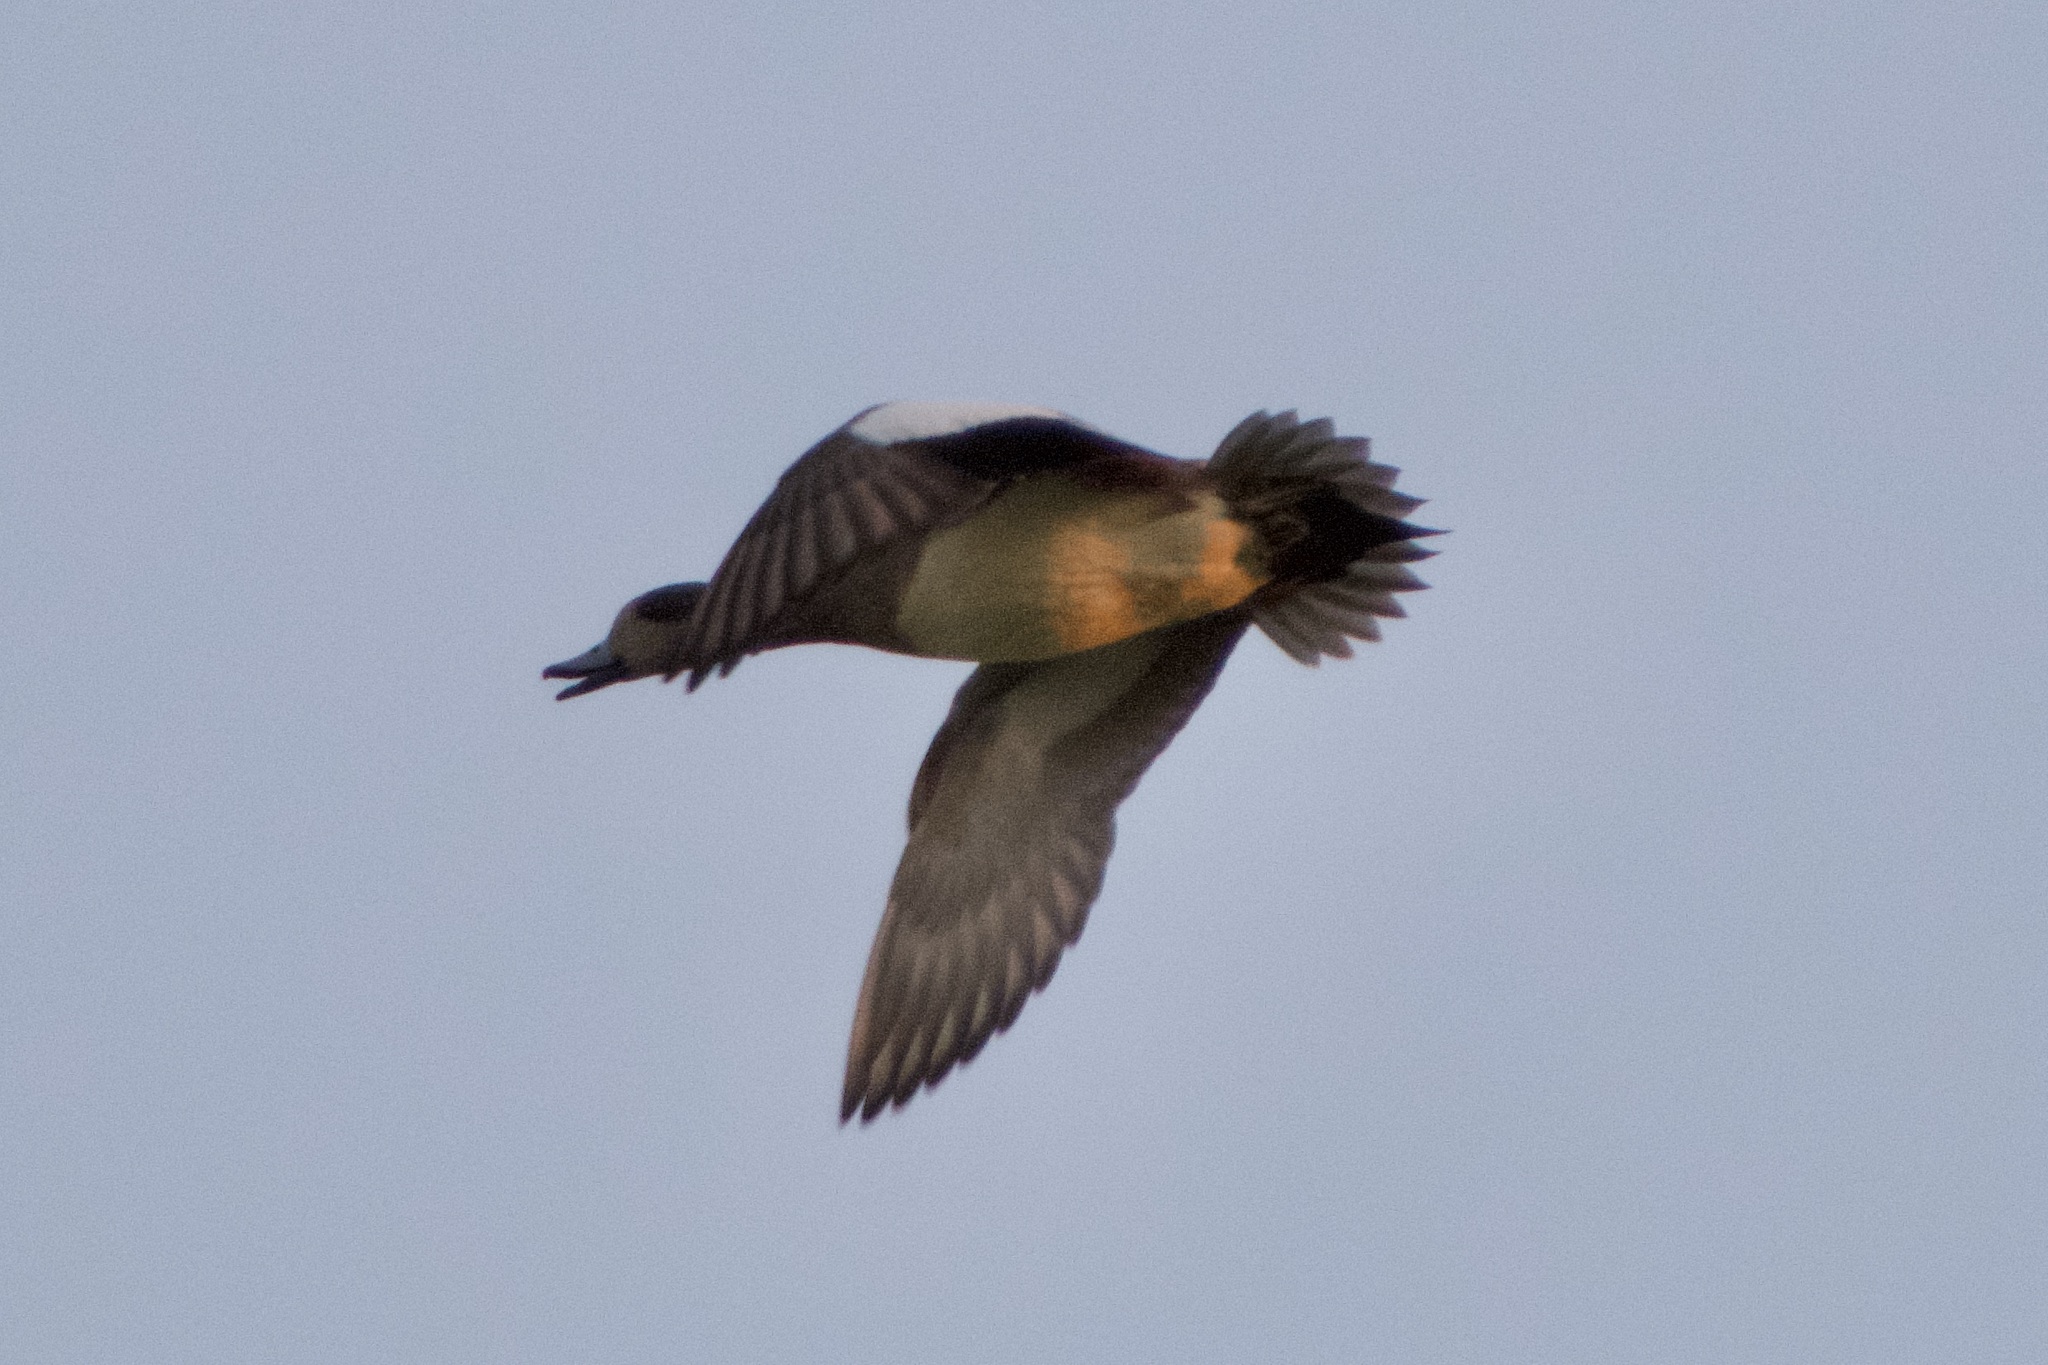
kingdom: Animalia
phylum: Chordata
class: Aves
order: Anseriformes
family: Anatidae
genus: Mareca
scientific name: Mareca americana
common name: American wigeon
